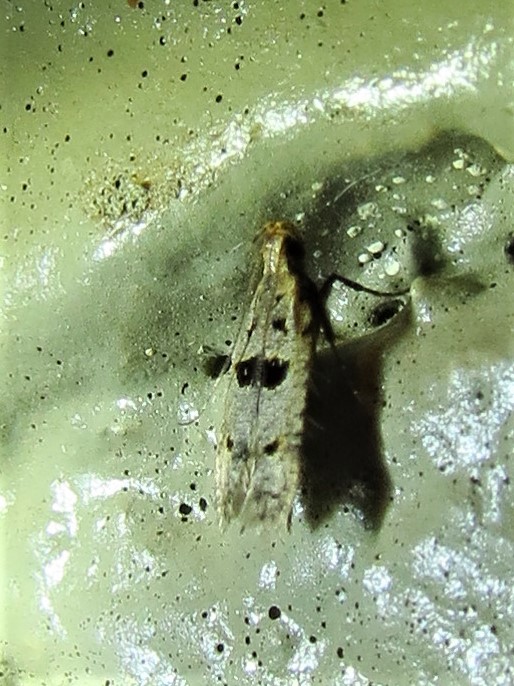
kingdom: Animalia
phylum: Arthropoda
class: Insecta
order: Lepidoptera
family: Gelechiidae
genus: Deltophora
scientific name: Deltophora glandiferella
